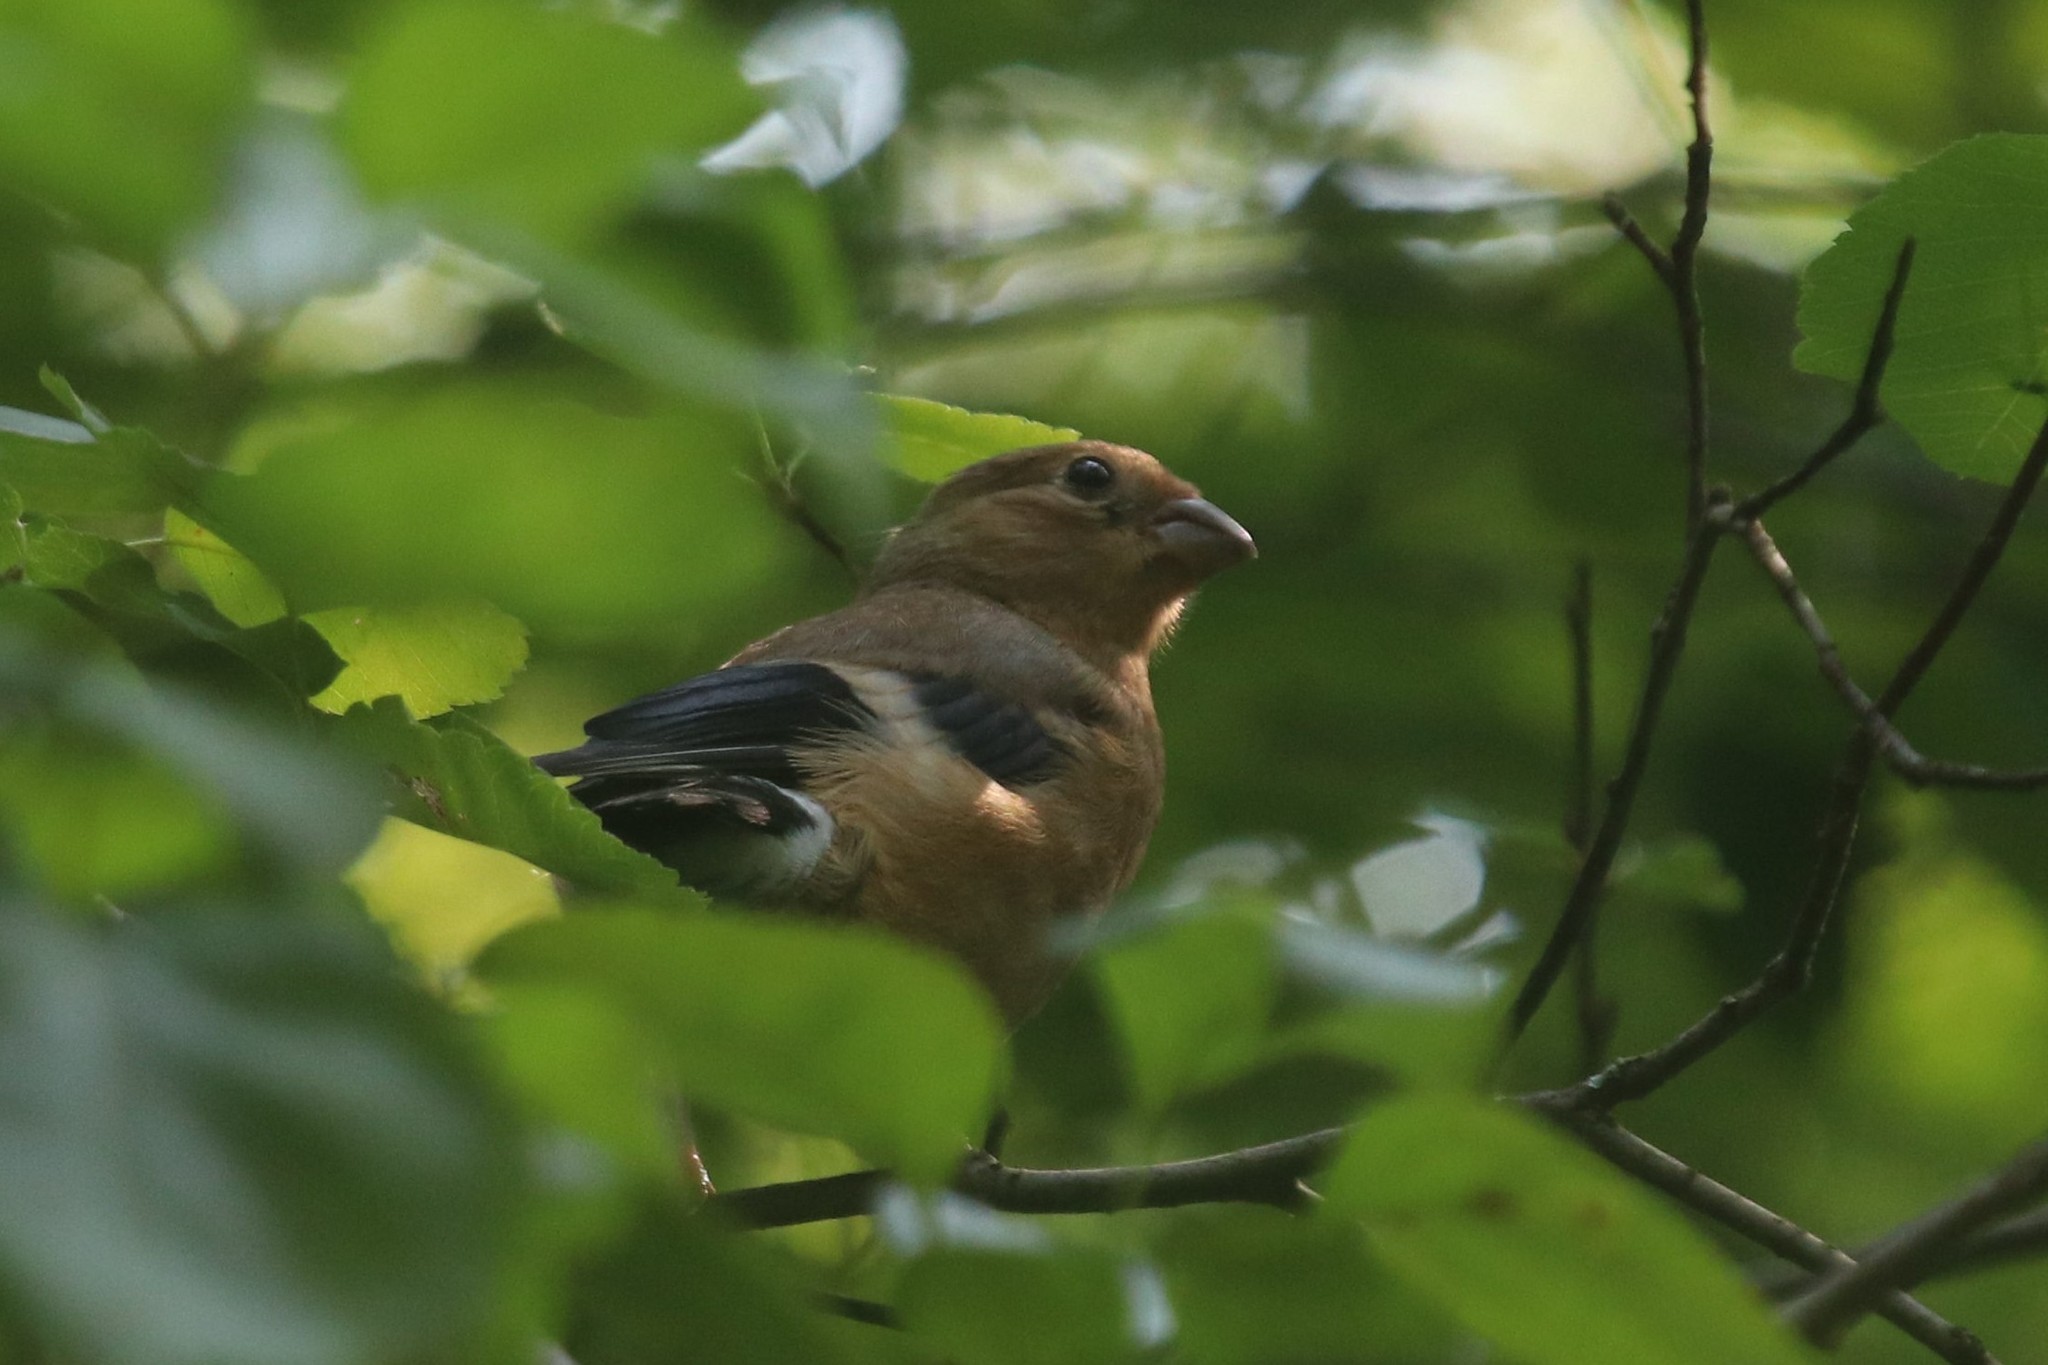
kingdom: Animalia
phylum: Chordata
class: Aves
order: Passeriformes
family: Fringillidae
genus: Pyrrhula
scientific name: Pyrrhula pyrrhula
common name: Eurasian bullfinch
